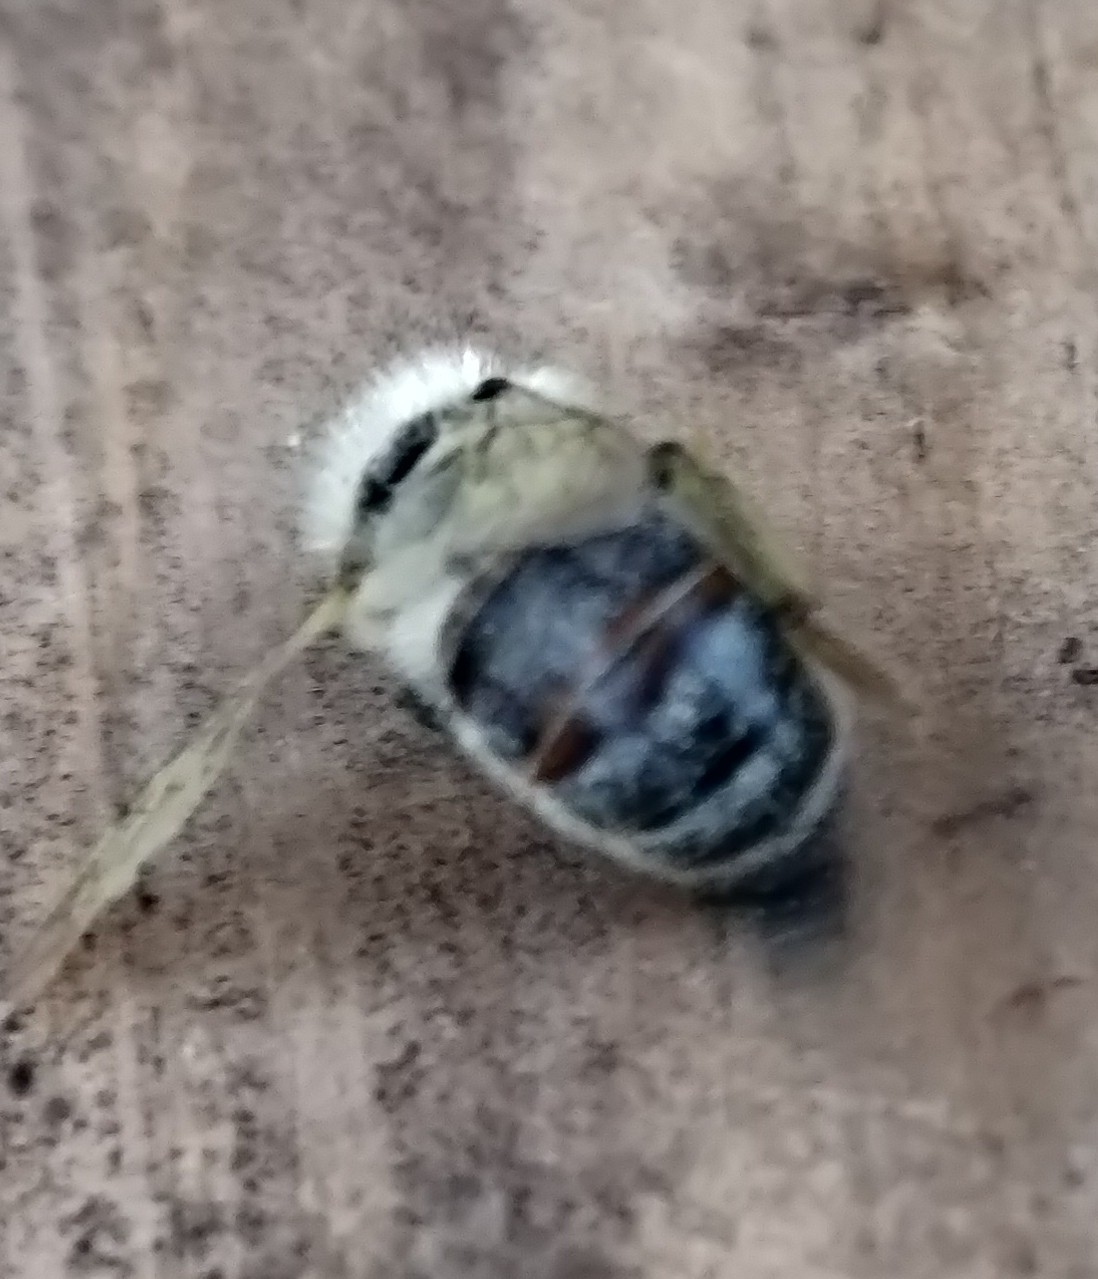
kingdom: Animalia
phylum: Arthropoda
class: Insecta
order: Hymenoptera
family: Apidae
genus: Apis
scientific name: Apis mellifera
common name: Honey bee
